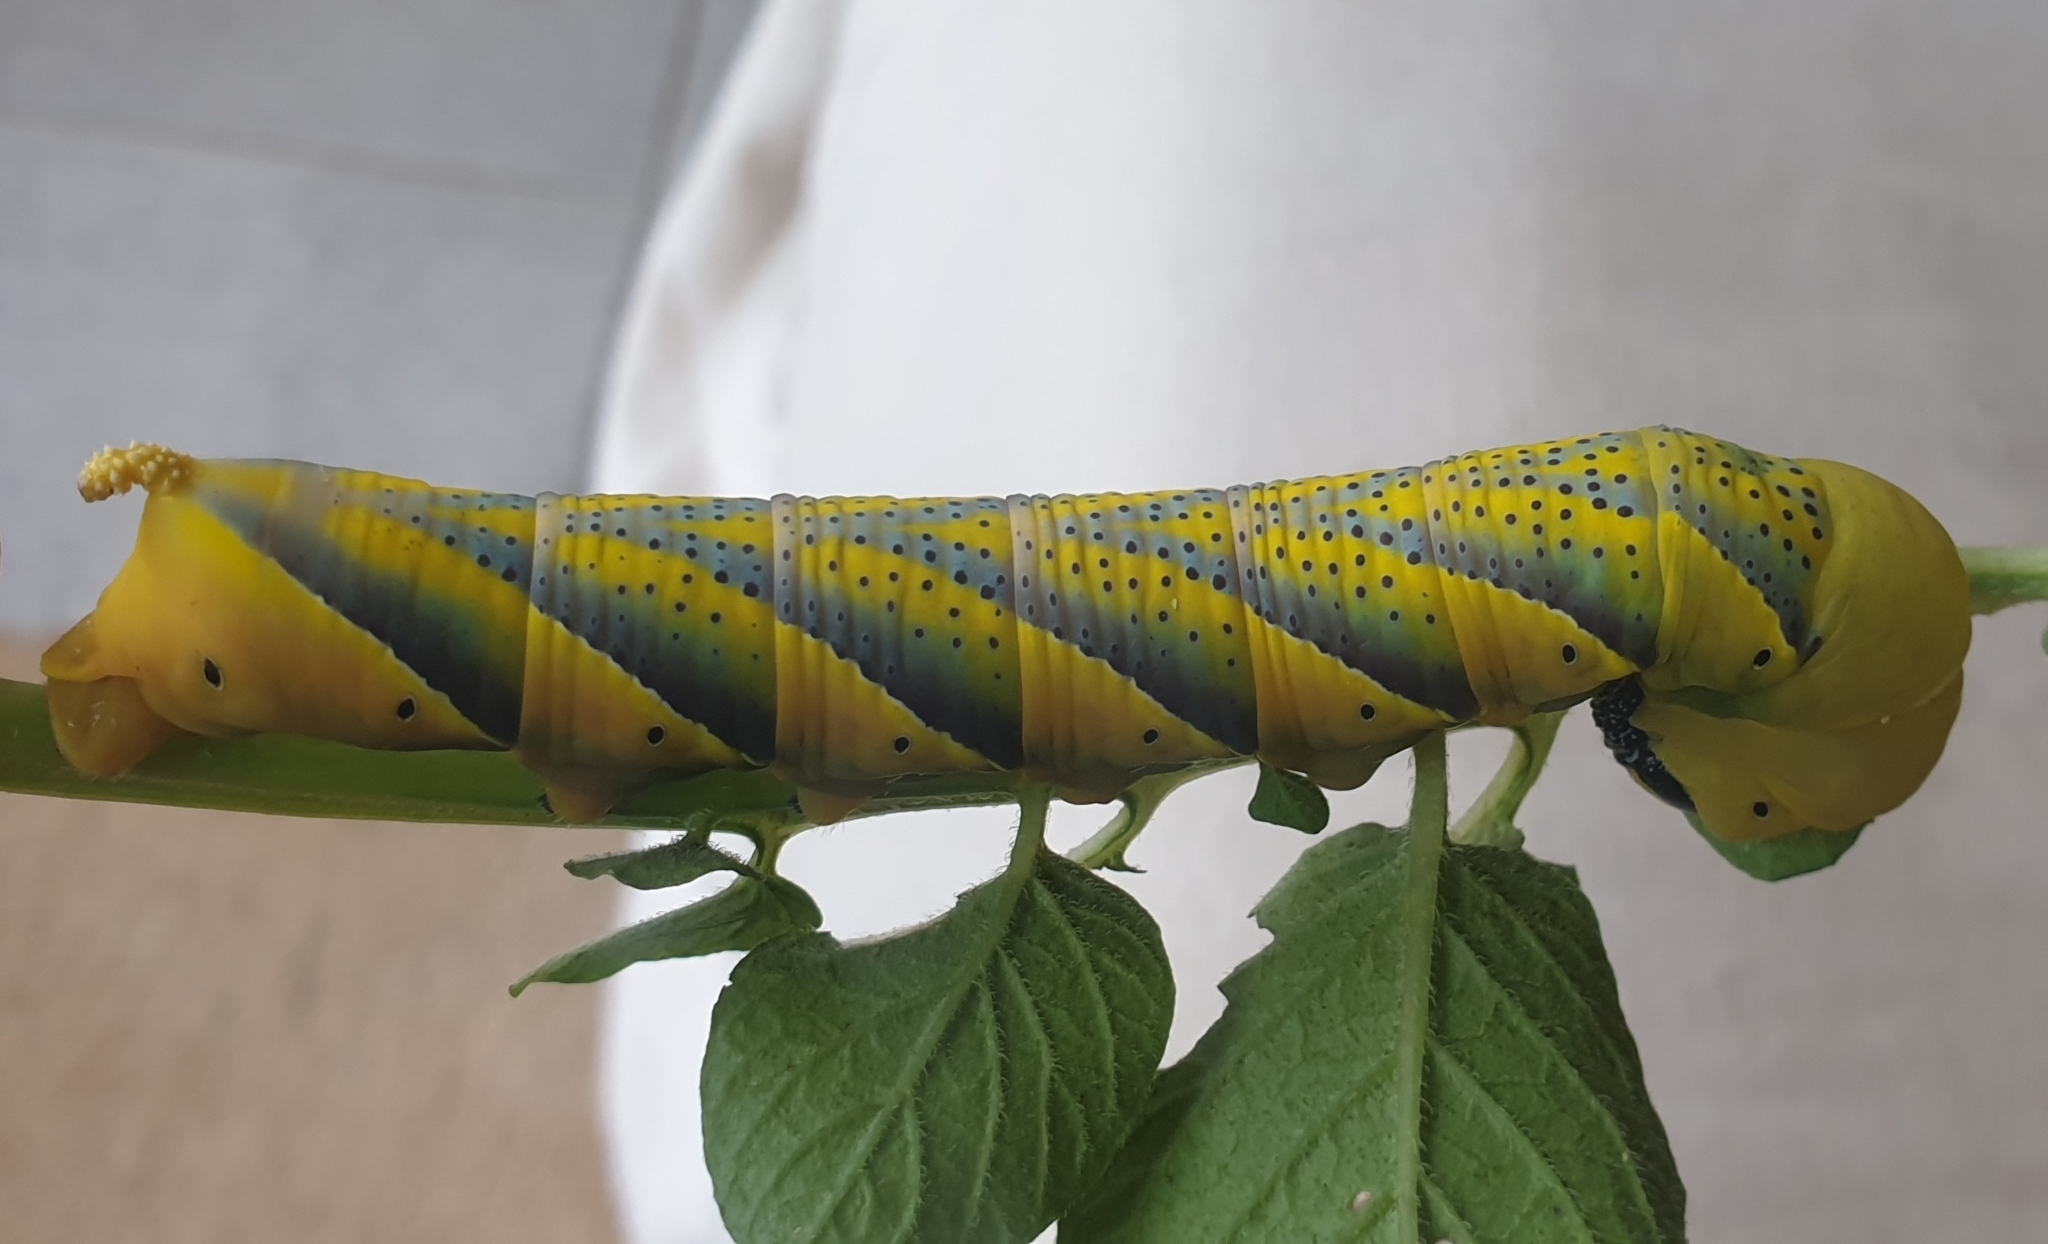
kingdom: Animalia
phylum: Arthropoda
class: Insecta
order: Lepidoptera
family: Sphingidae
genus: Acherontia
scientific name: Acherontia atropos
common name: Death's-head hawk moth
